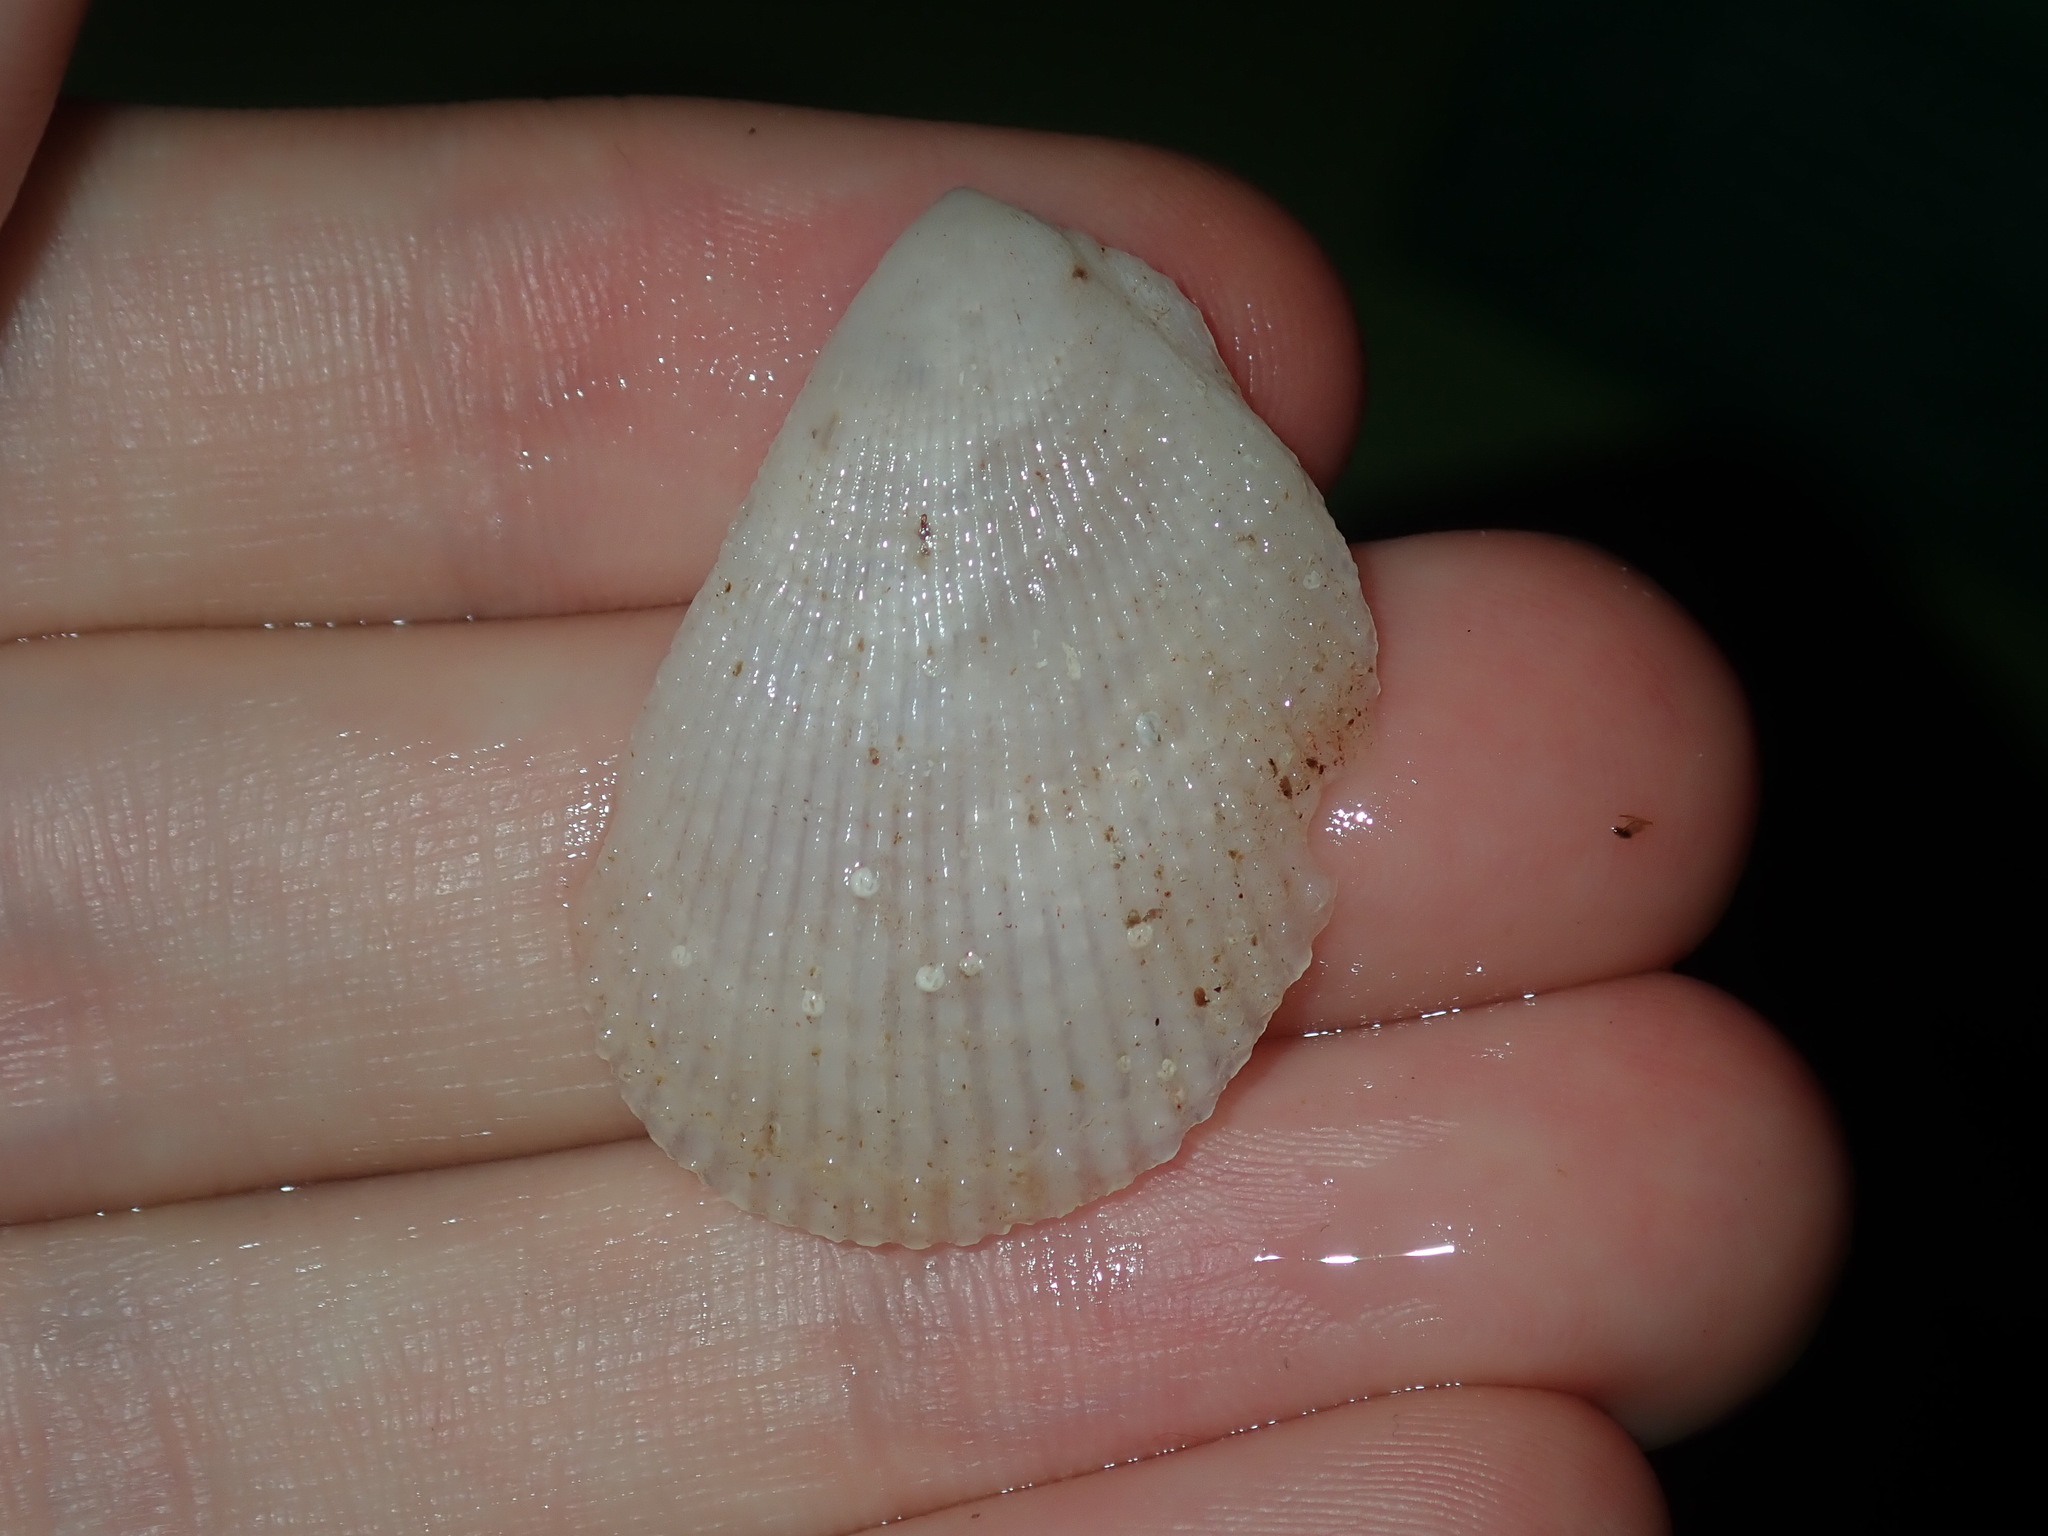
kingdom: Animalia
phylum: Mollusca
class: Bivalvia
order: Limida
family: Limidae
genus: Lima
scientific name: Lima nimbifer
